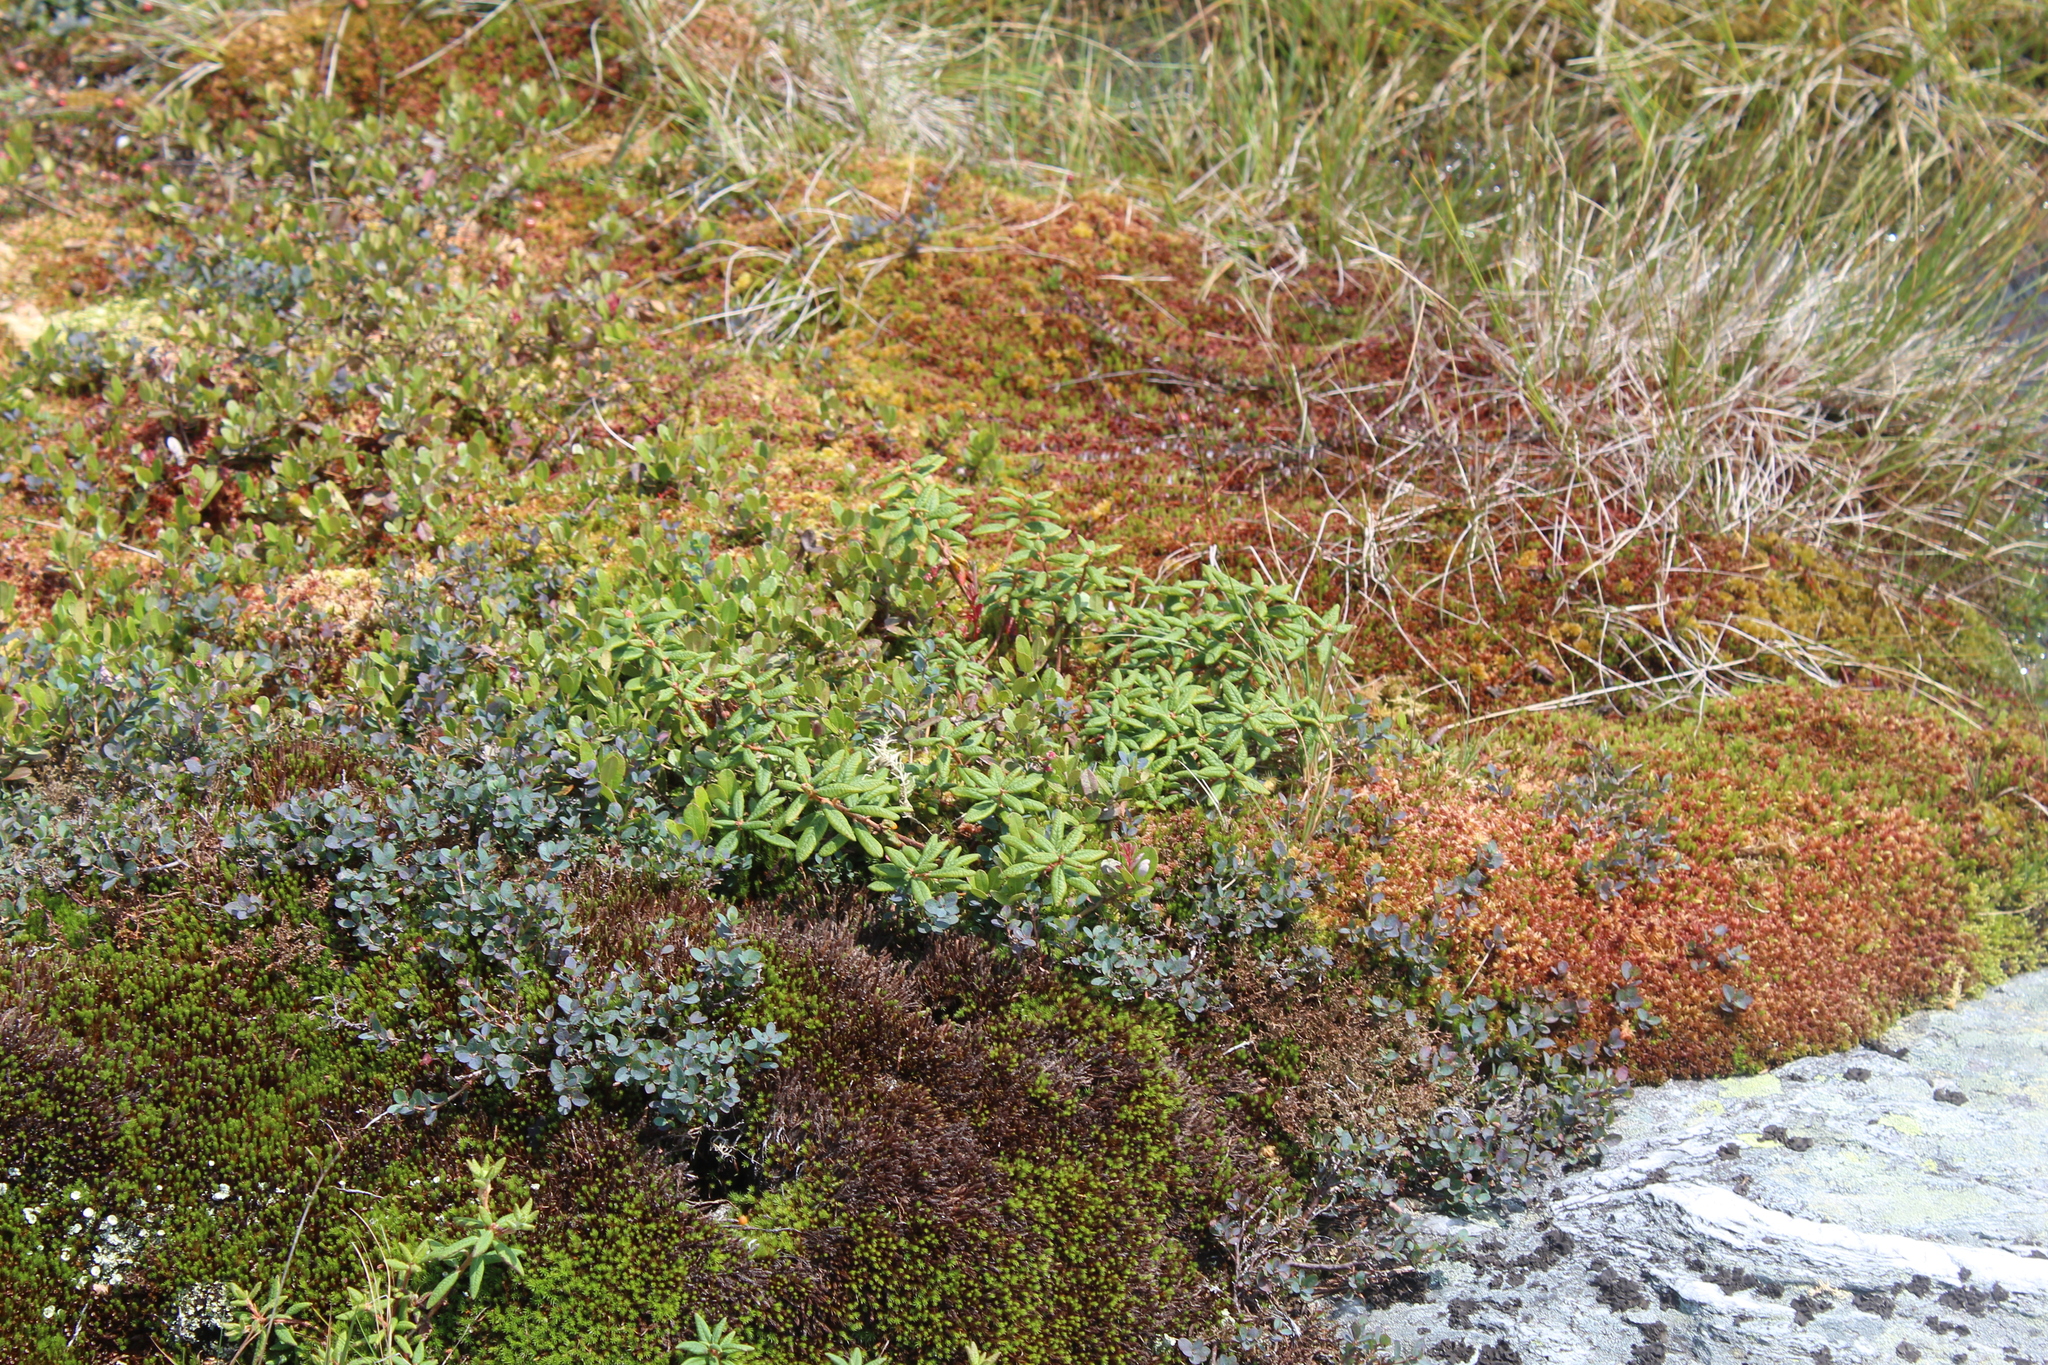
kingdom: Plantae
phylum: Tracheophyta
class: Magnoliopsida
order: Ericales
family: Ericaceae
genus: Rhododendron
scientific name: Rhododendron groenlandicum
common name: Bog labrador tea
